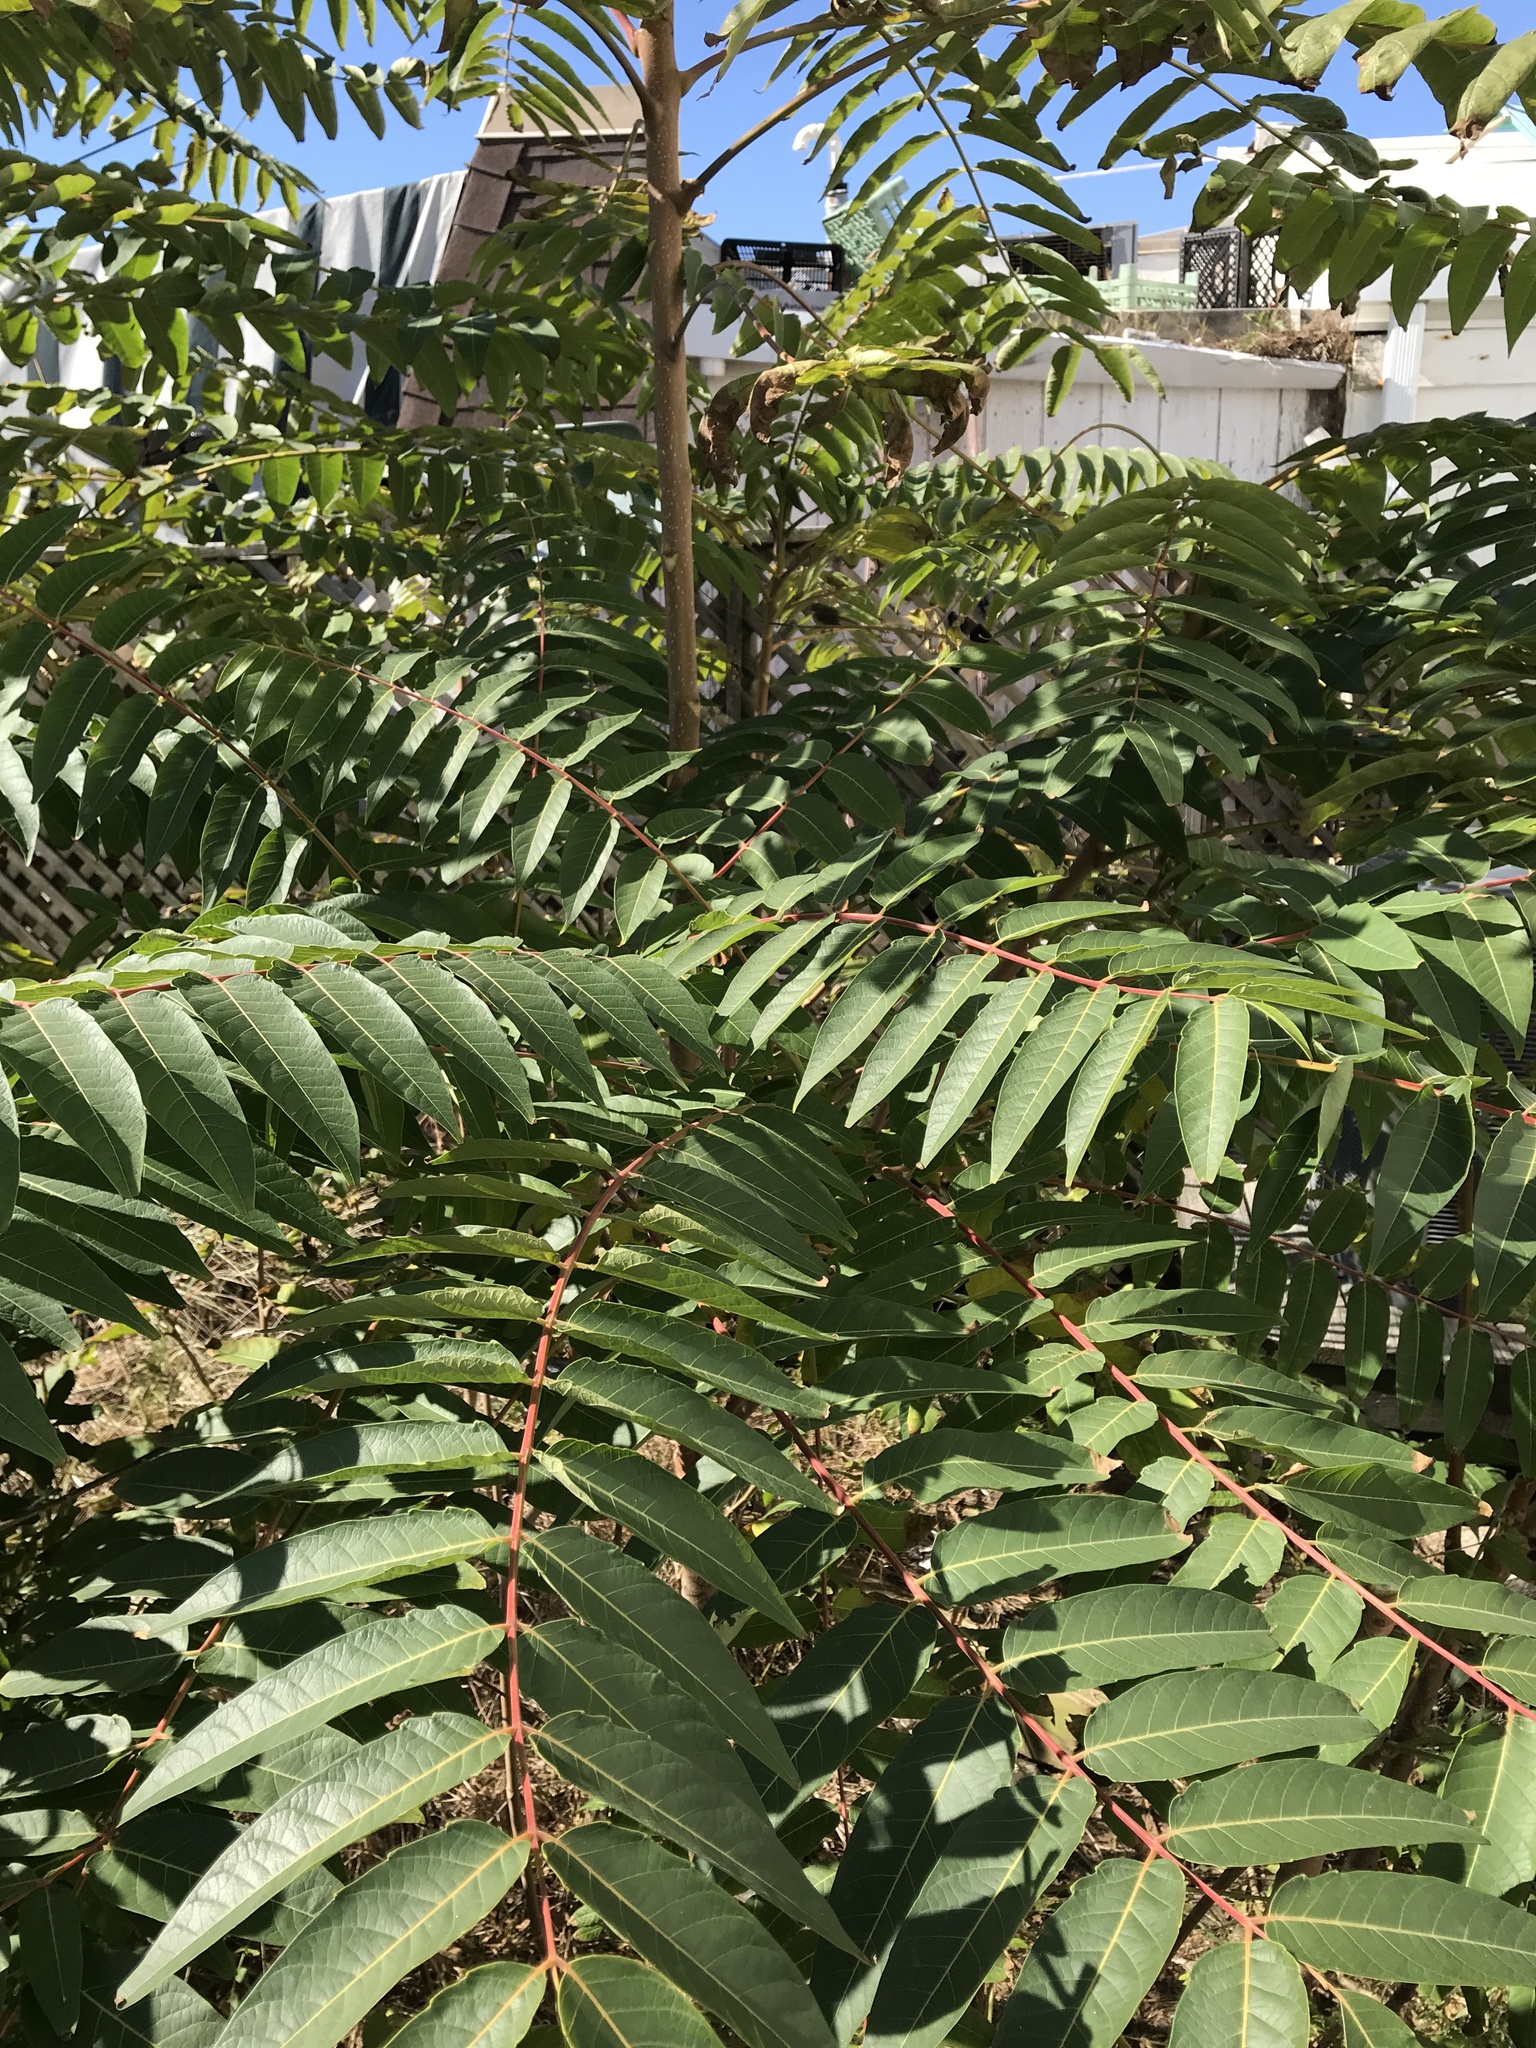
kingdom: Plantae
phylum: Tracheophyta
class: Magnoliopsida
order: Sapindales
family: Simaroubaceae
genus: Ailanthus
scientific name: Ailanthus altissima
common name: Tree-of-heaven
